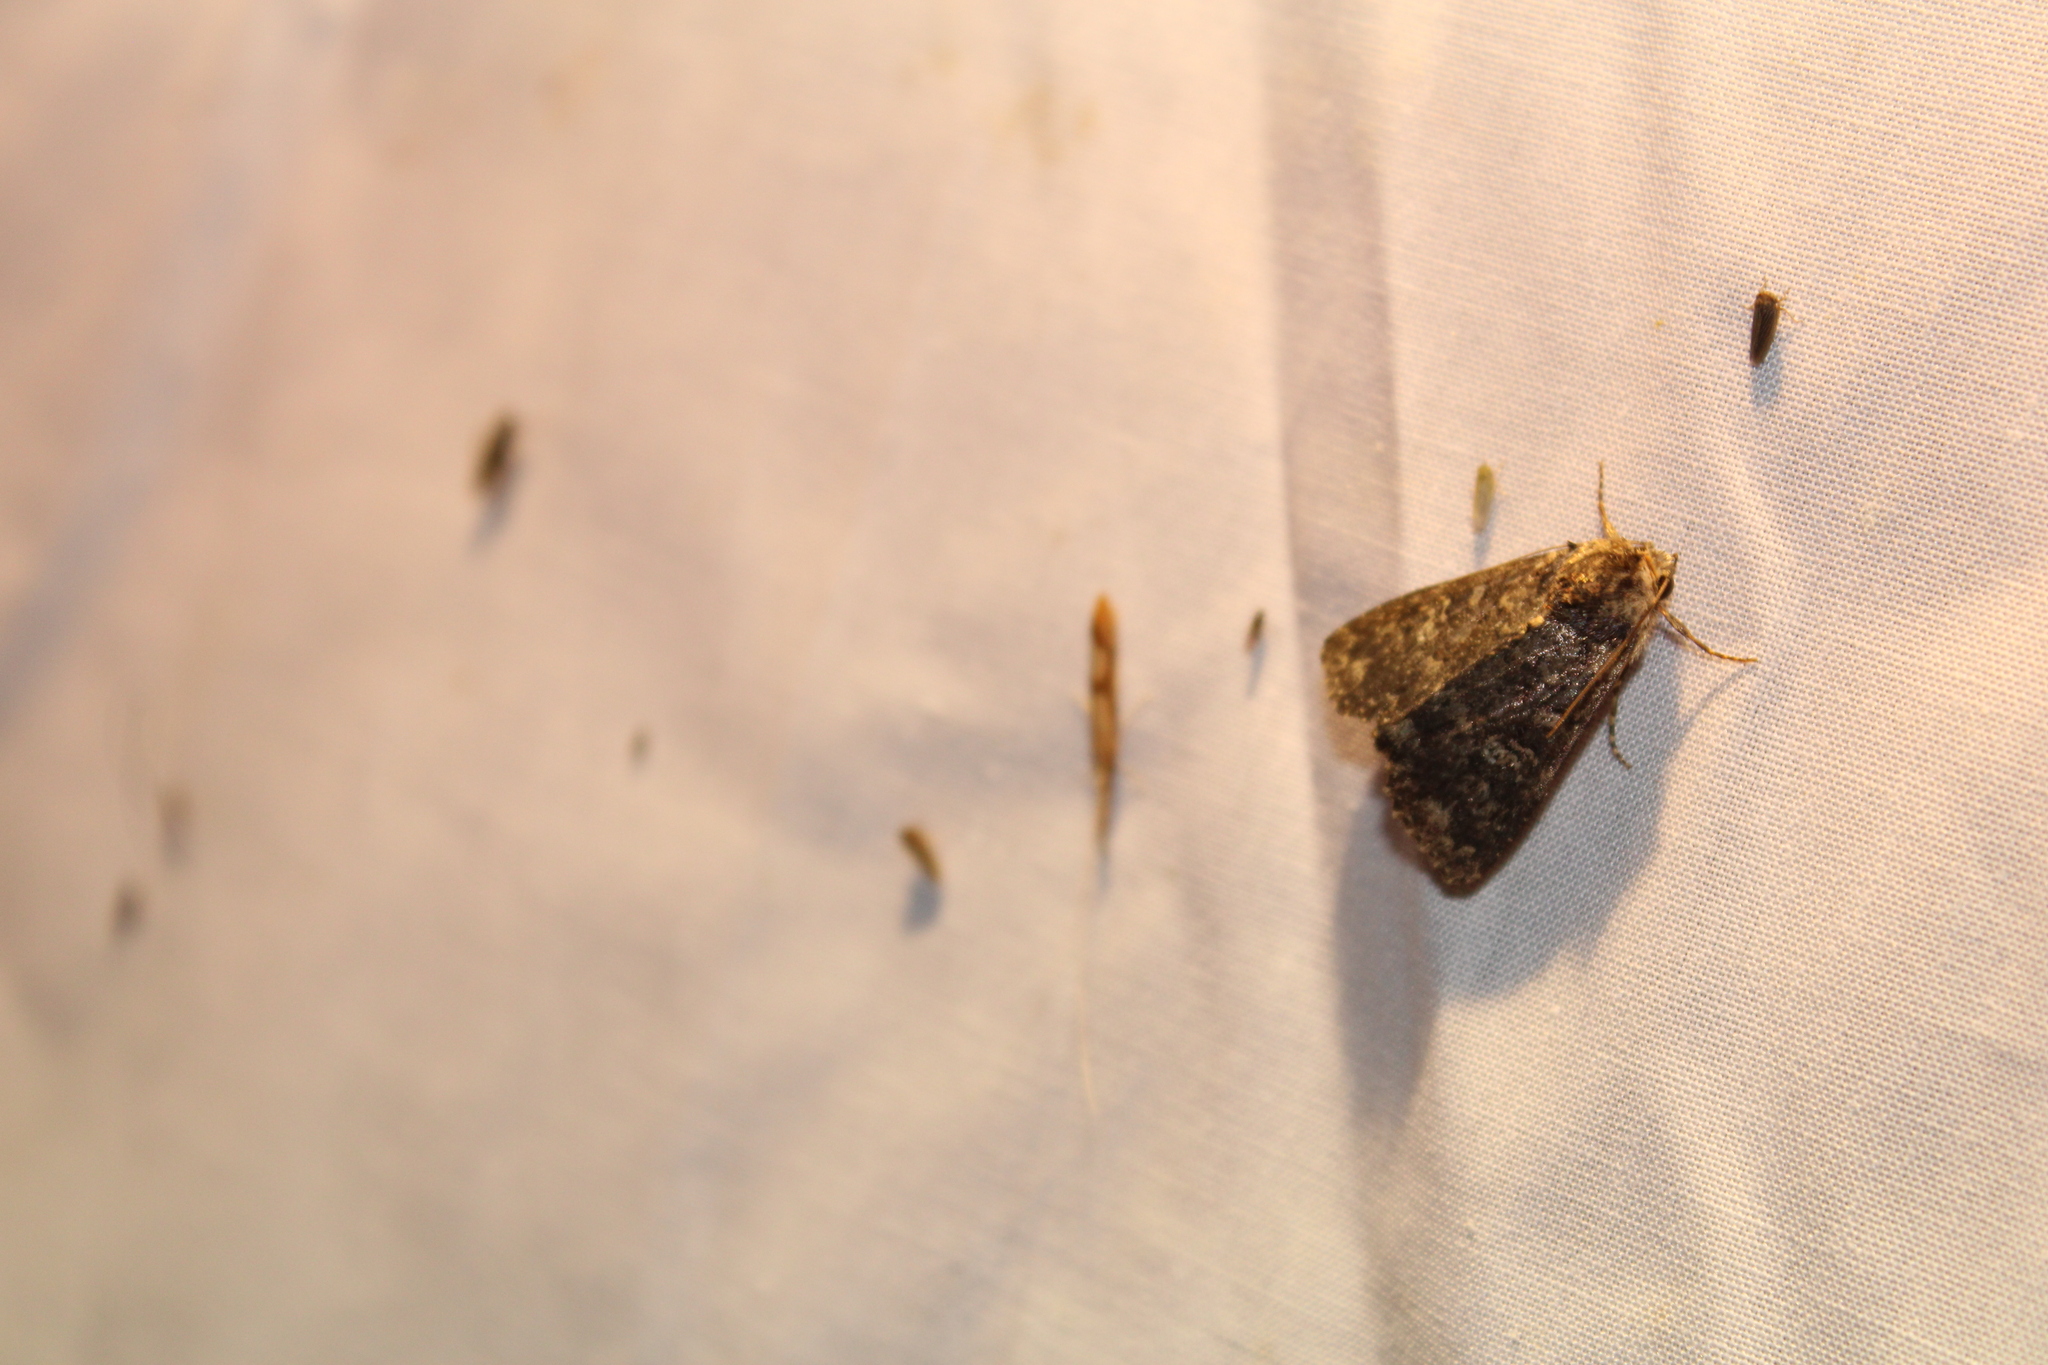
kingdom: Animalia
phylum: Arthropoda
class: Insecta
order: Lepidoptera
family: Noctuidae
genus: Condica
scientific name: Condica vecors
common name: Dusky groundling
